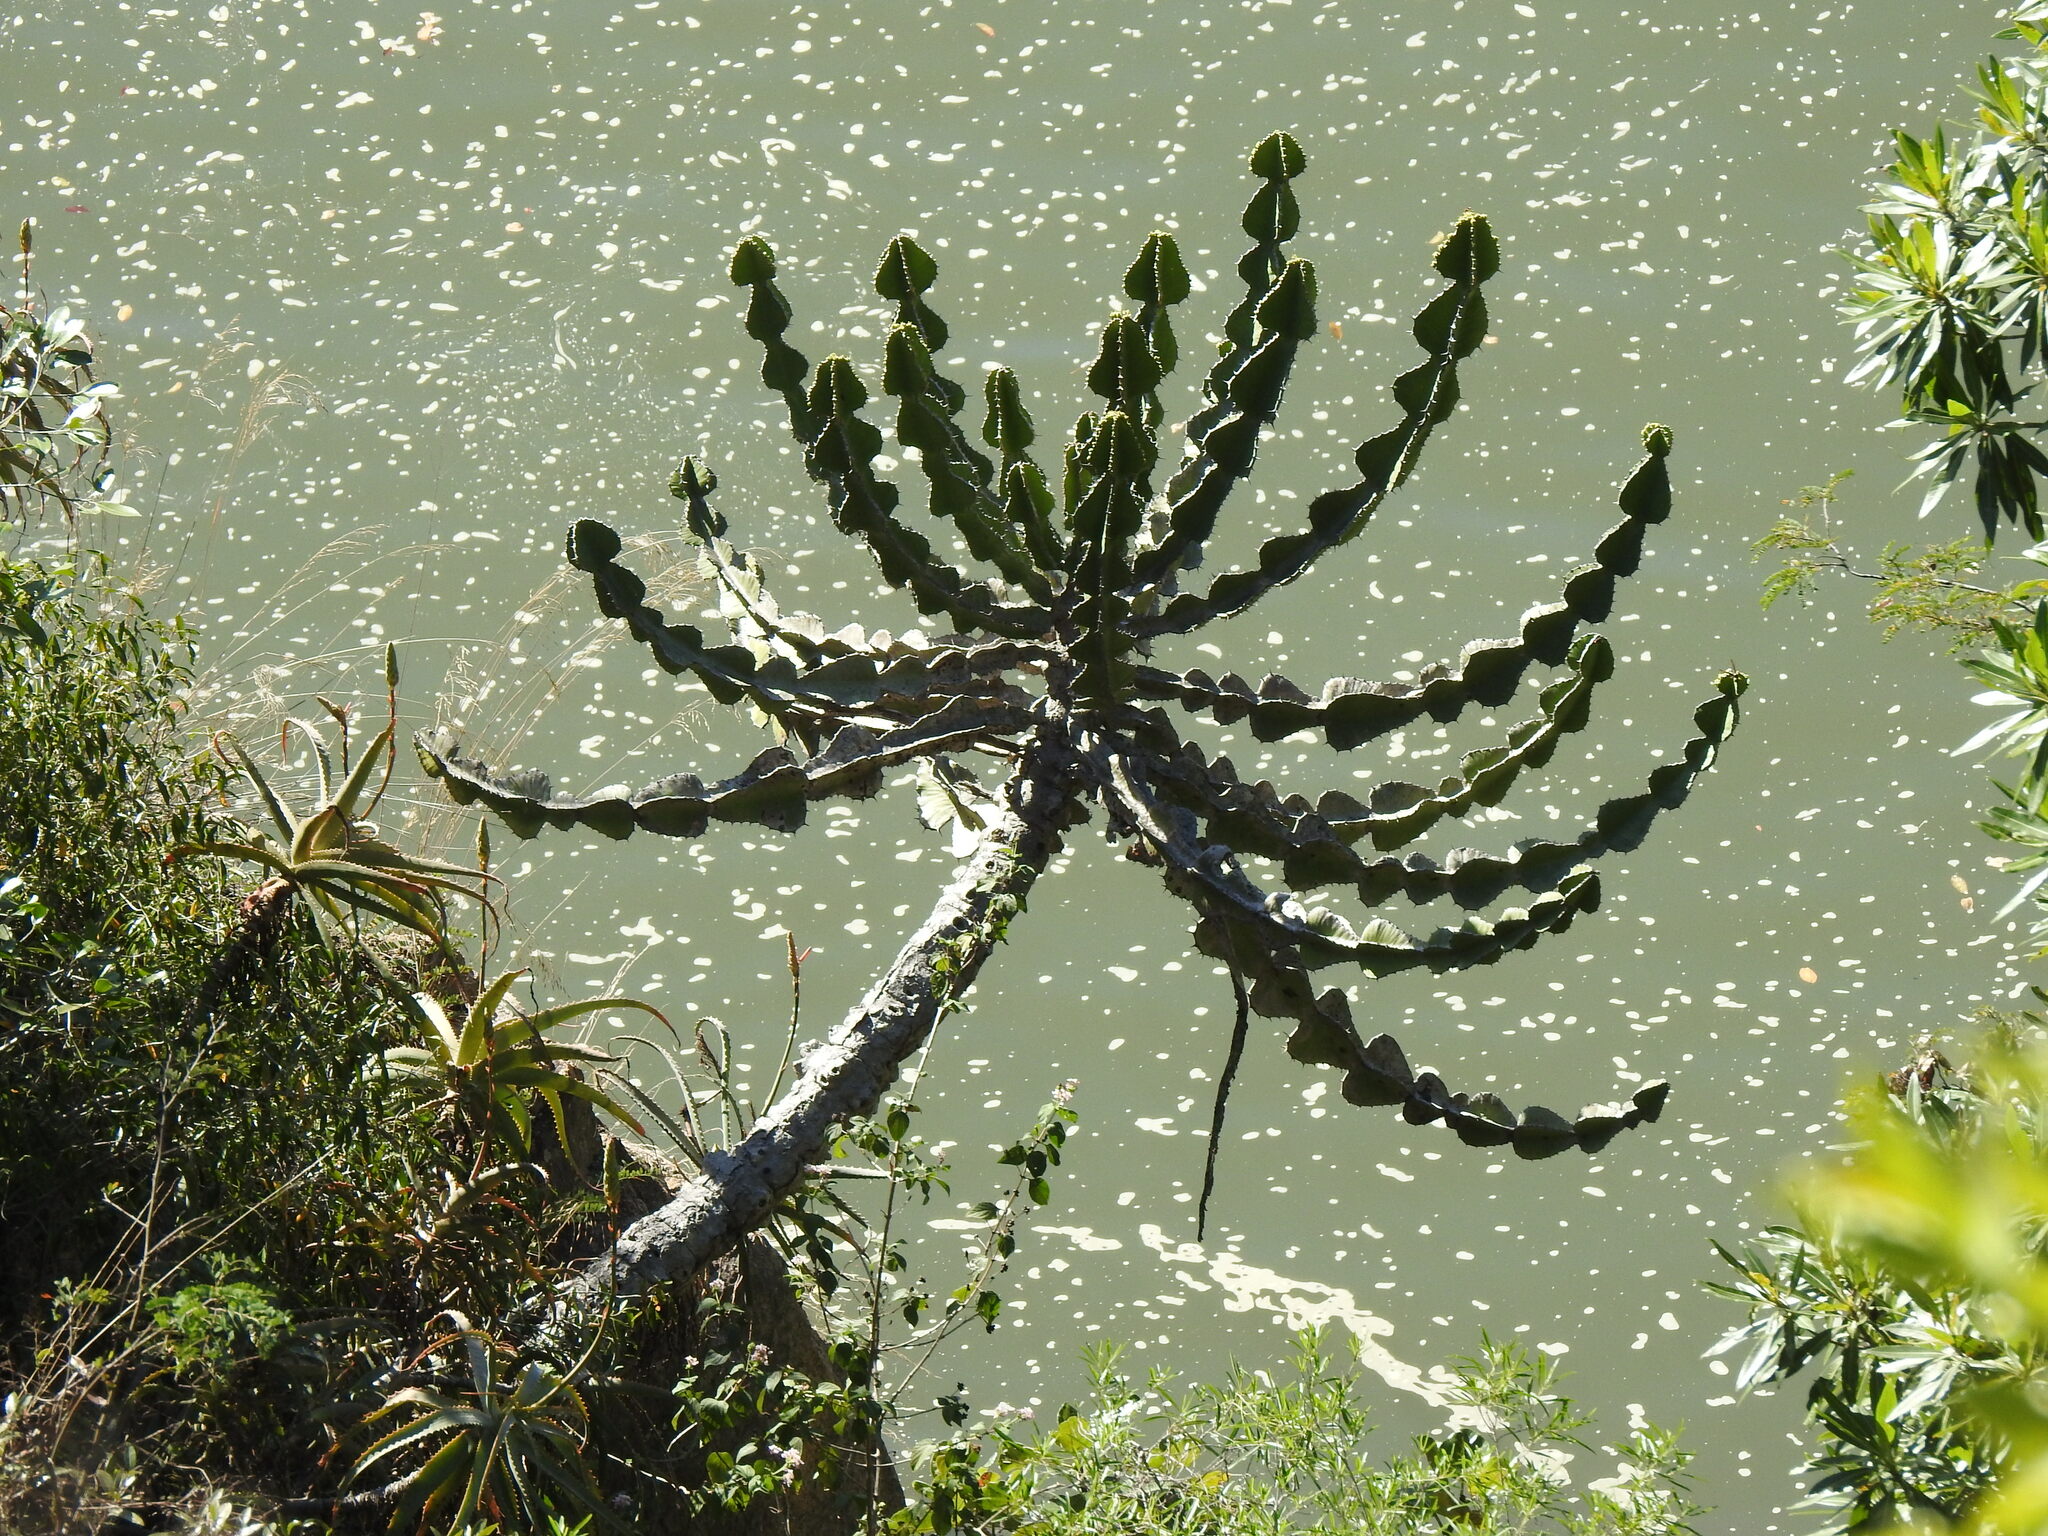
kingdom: Plantae
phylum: Tracheophyta
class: Magnoliopsida
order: Malpighiales
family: Euphorbiaceae
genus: Euphorbia
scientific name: Euphorbia cooperi
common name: Candelabra tree
